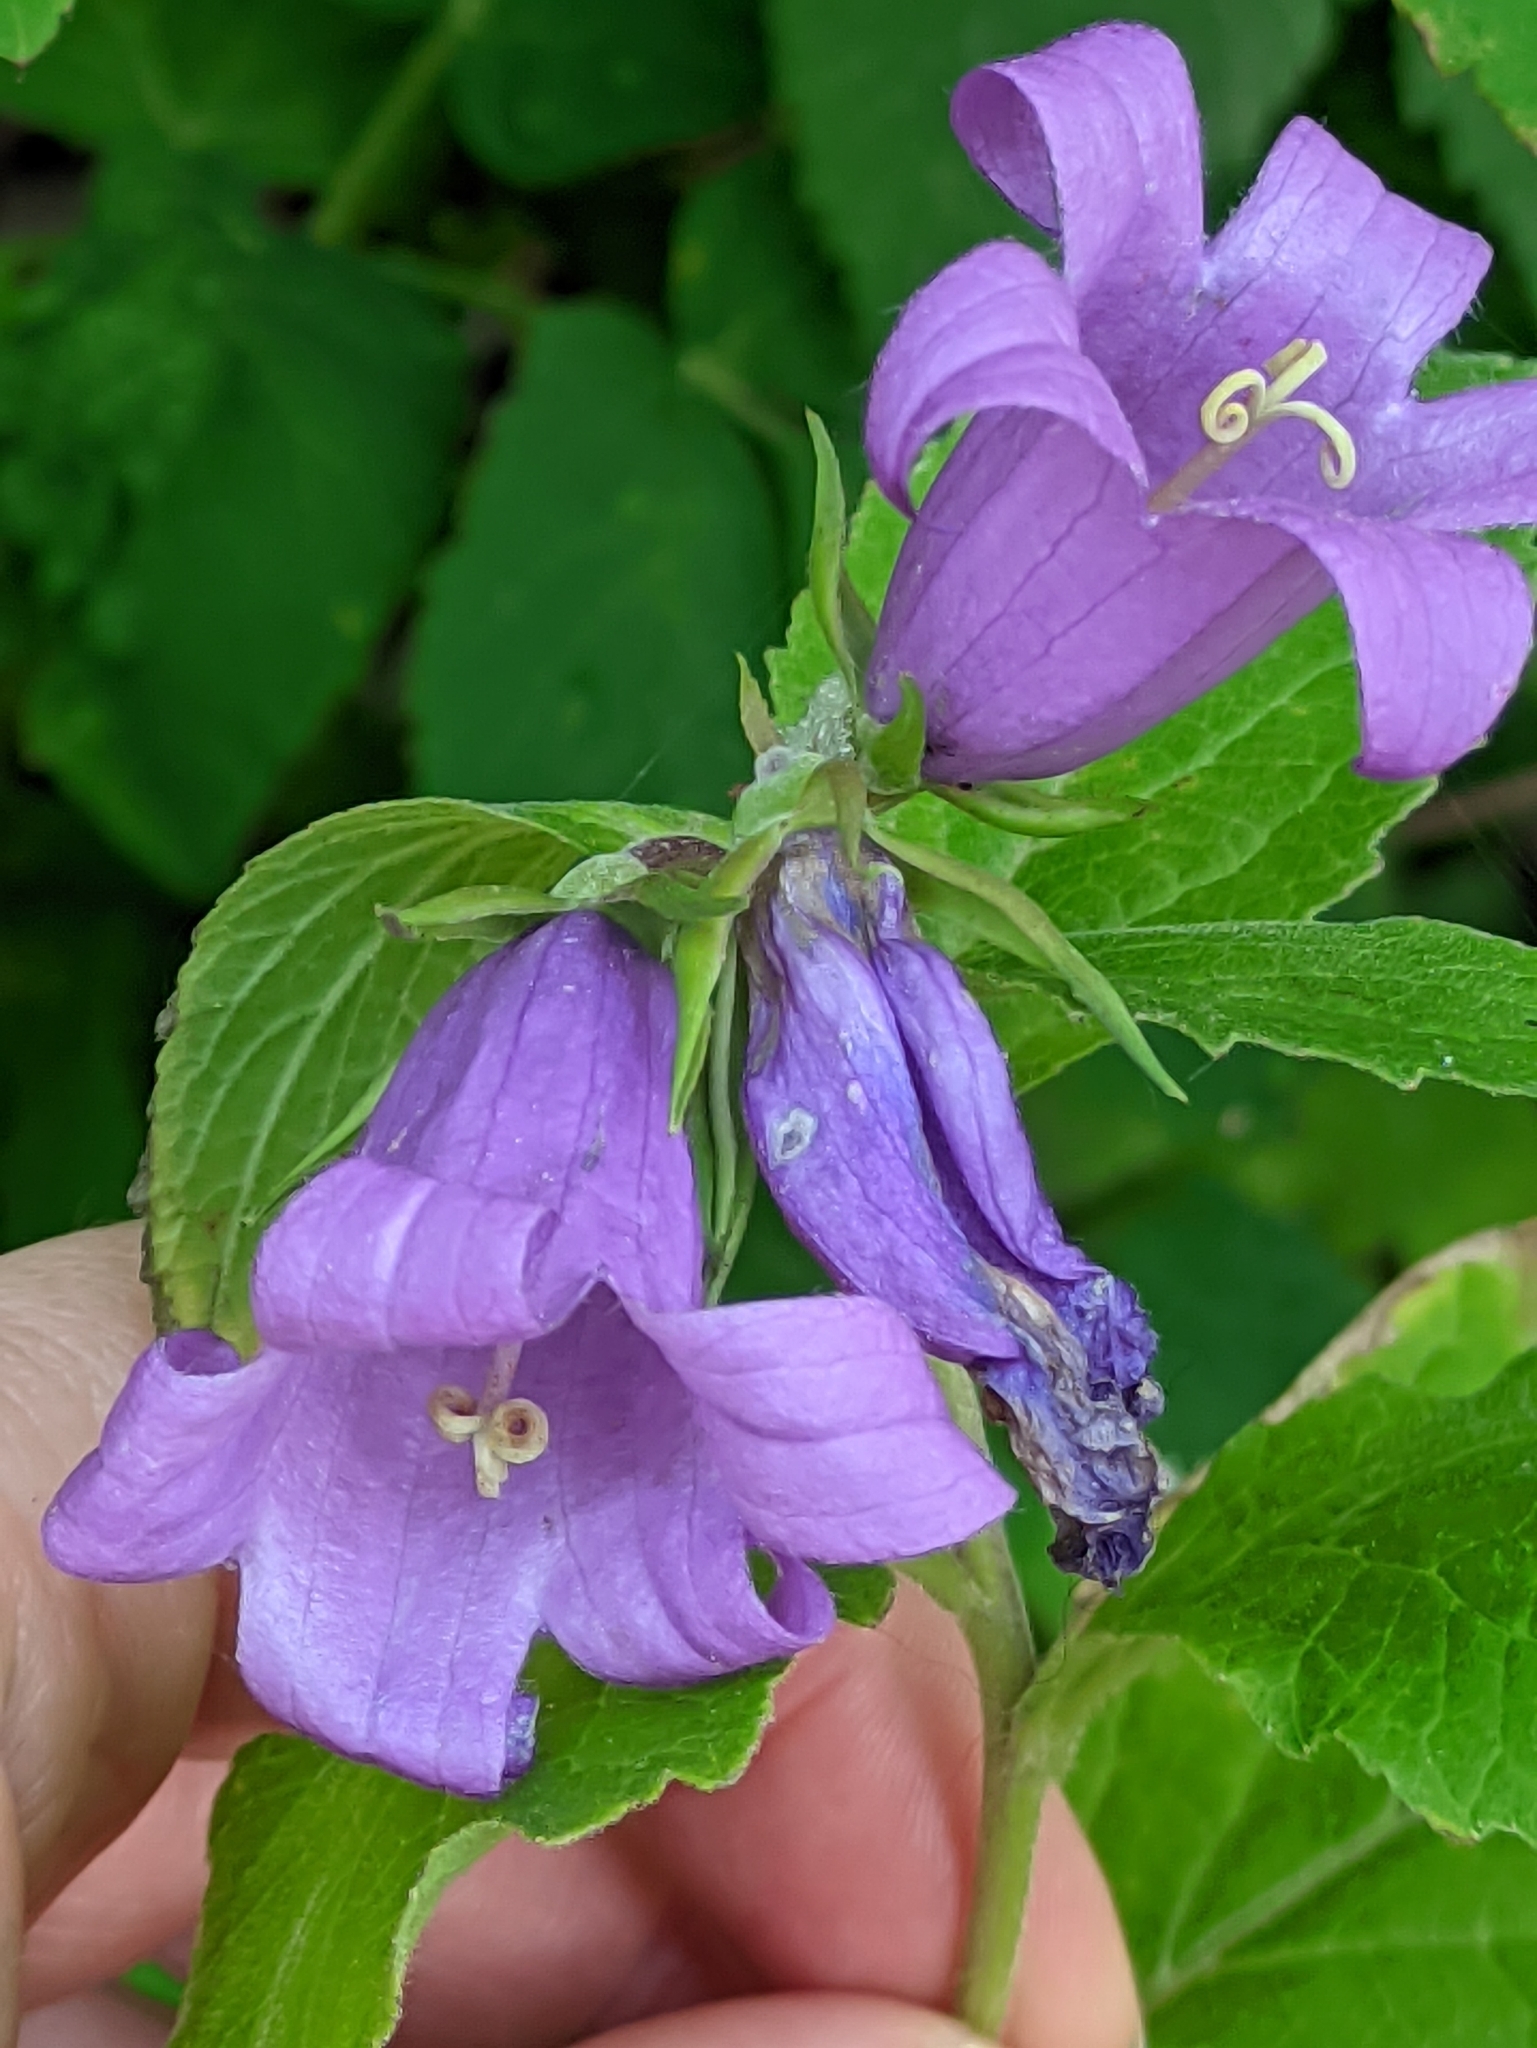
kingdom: Plantae
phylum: Tracheophyta
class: Magnoliopsida
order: Asterales
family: Campanulaceae
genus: Campanula
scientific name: Campanula latifolia
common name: Giant bellflower
